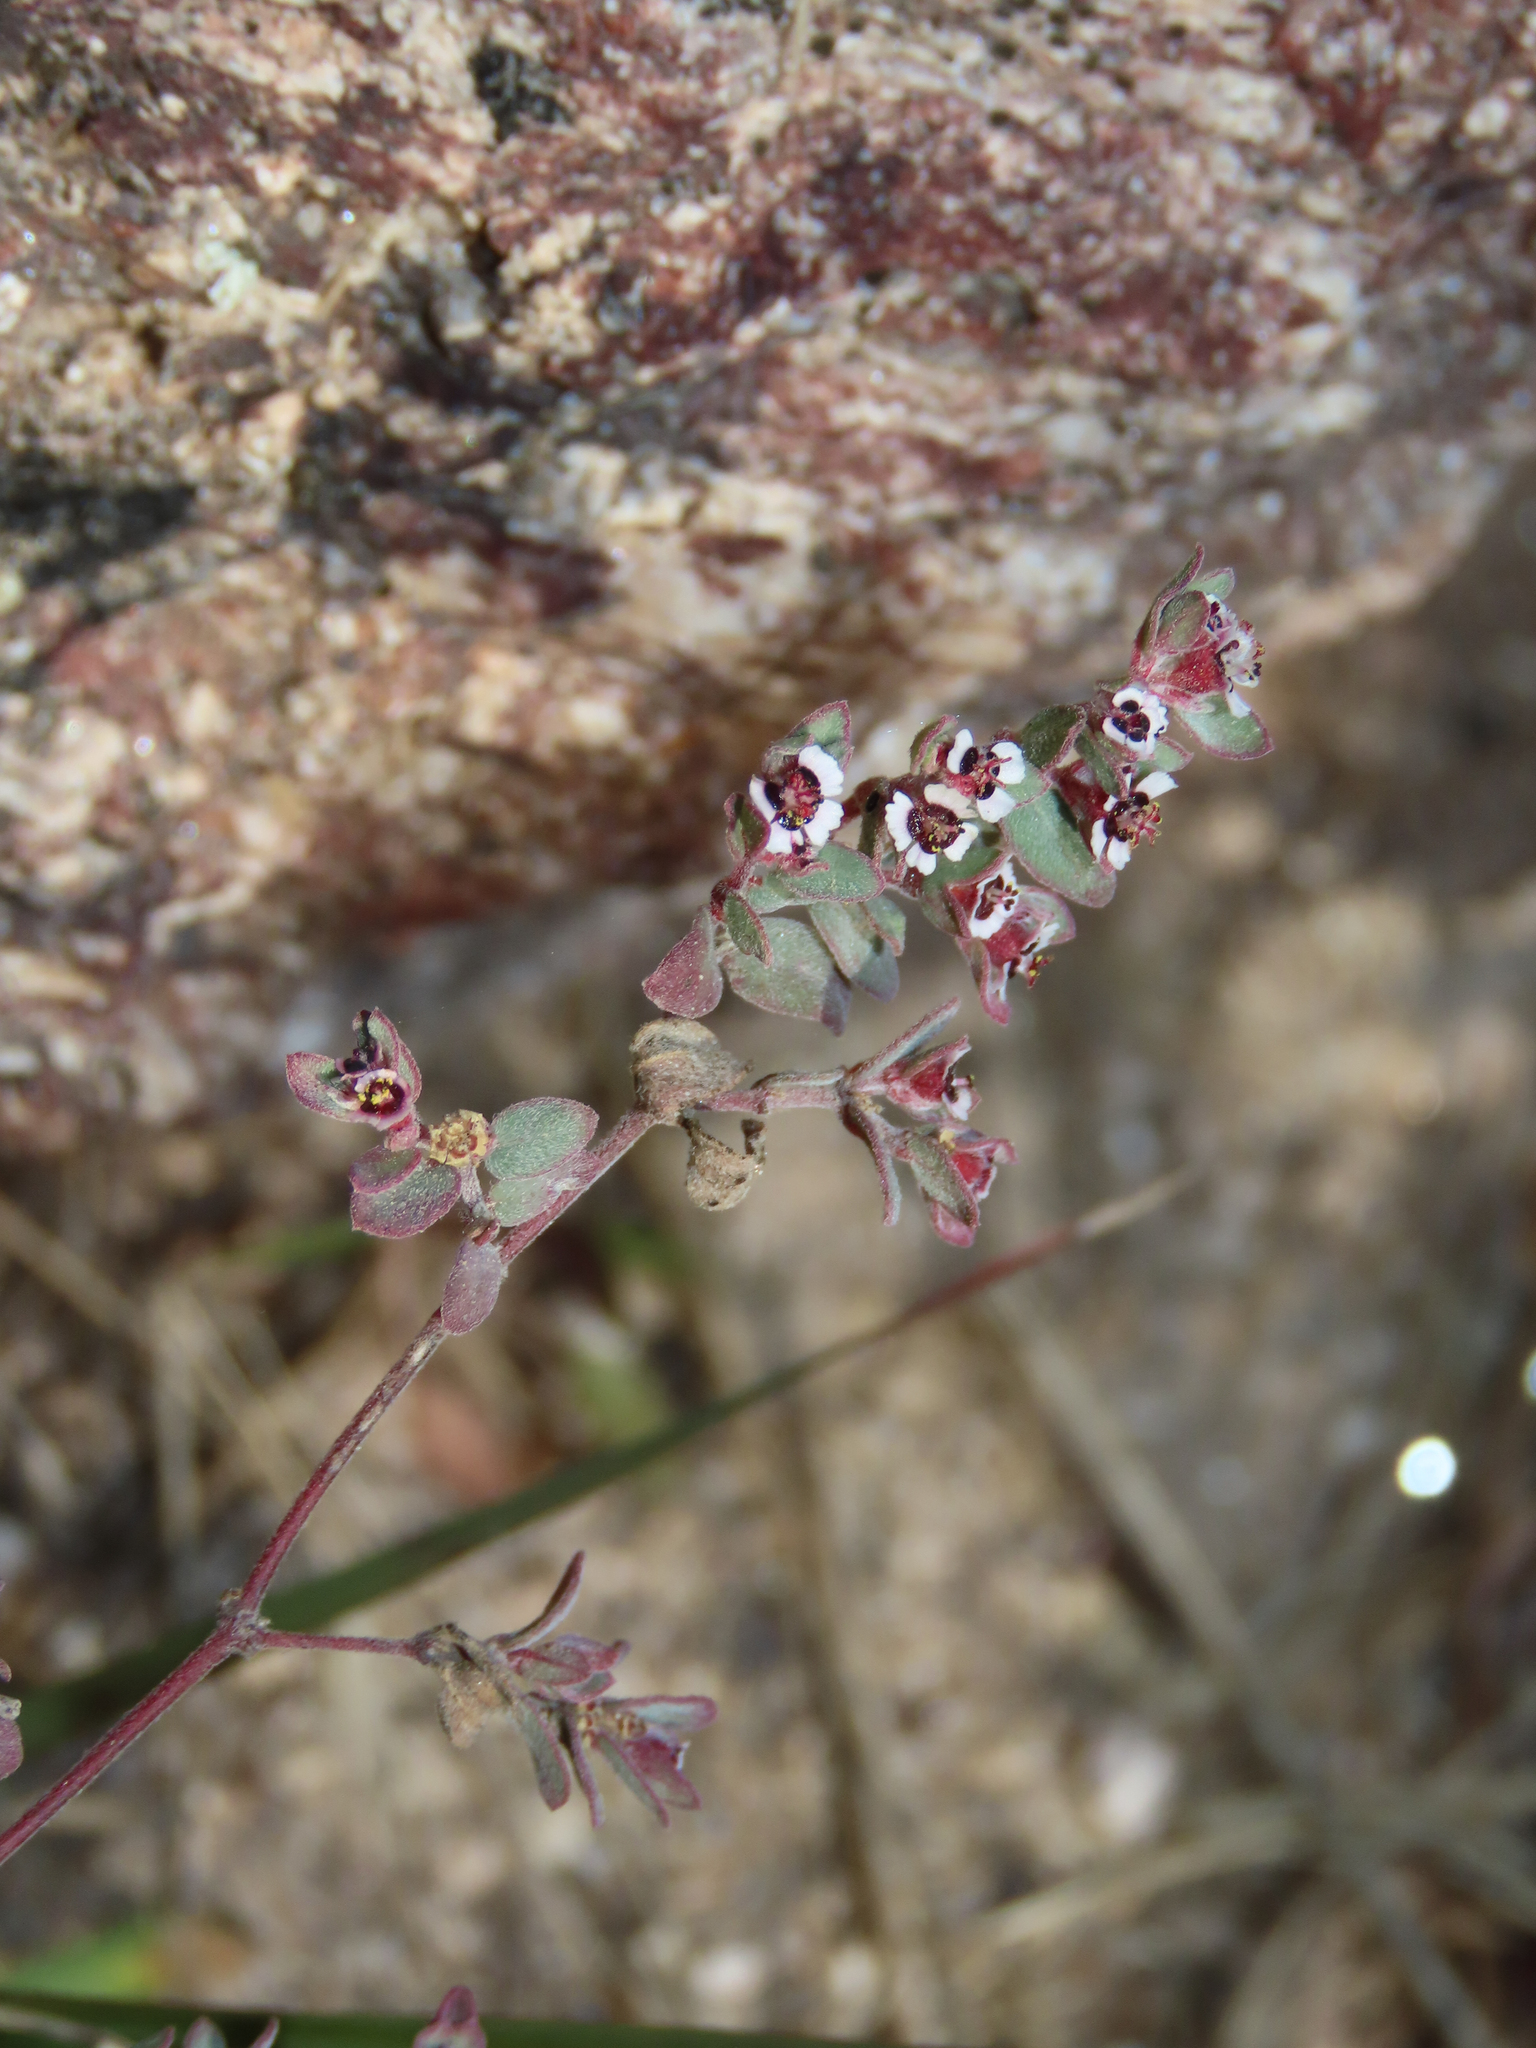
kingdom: Plantae
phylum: Tracheophyta
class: Magnoliopsida
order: Malpighiales
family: Euphorbiaceae
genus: Euphorbia
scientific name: Euphorbia melanadenia
